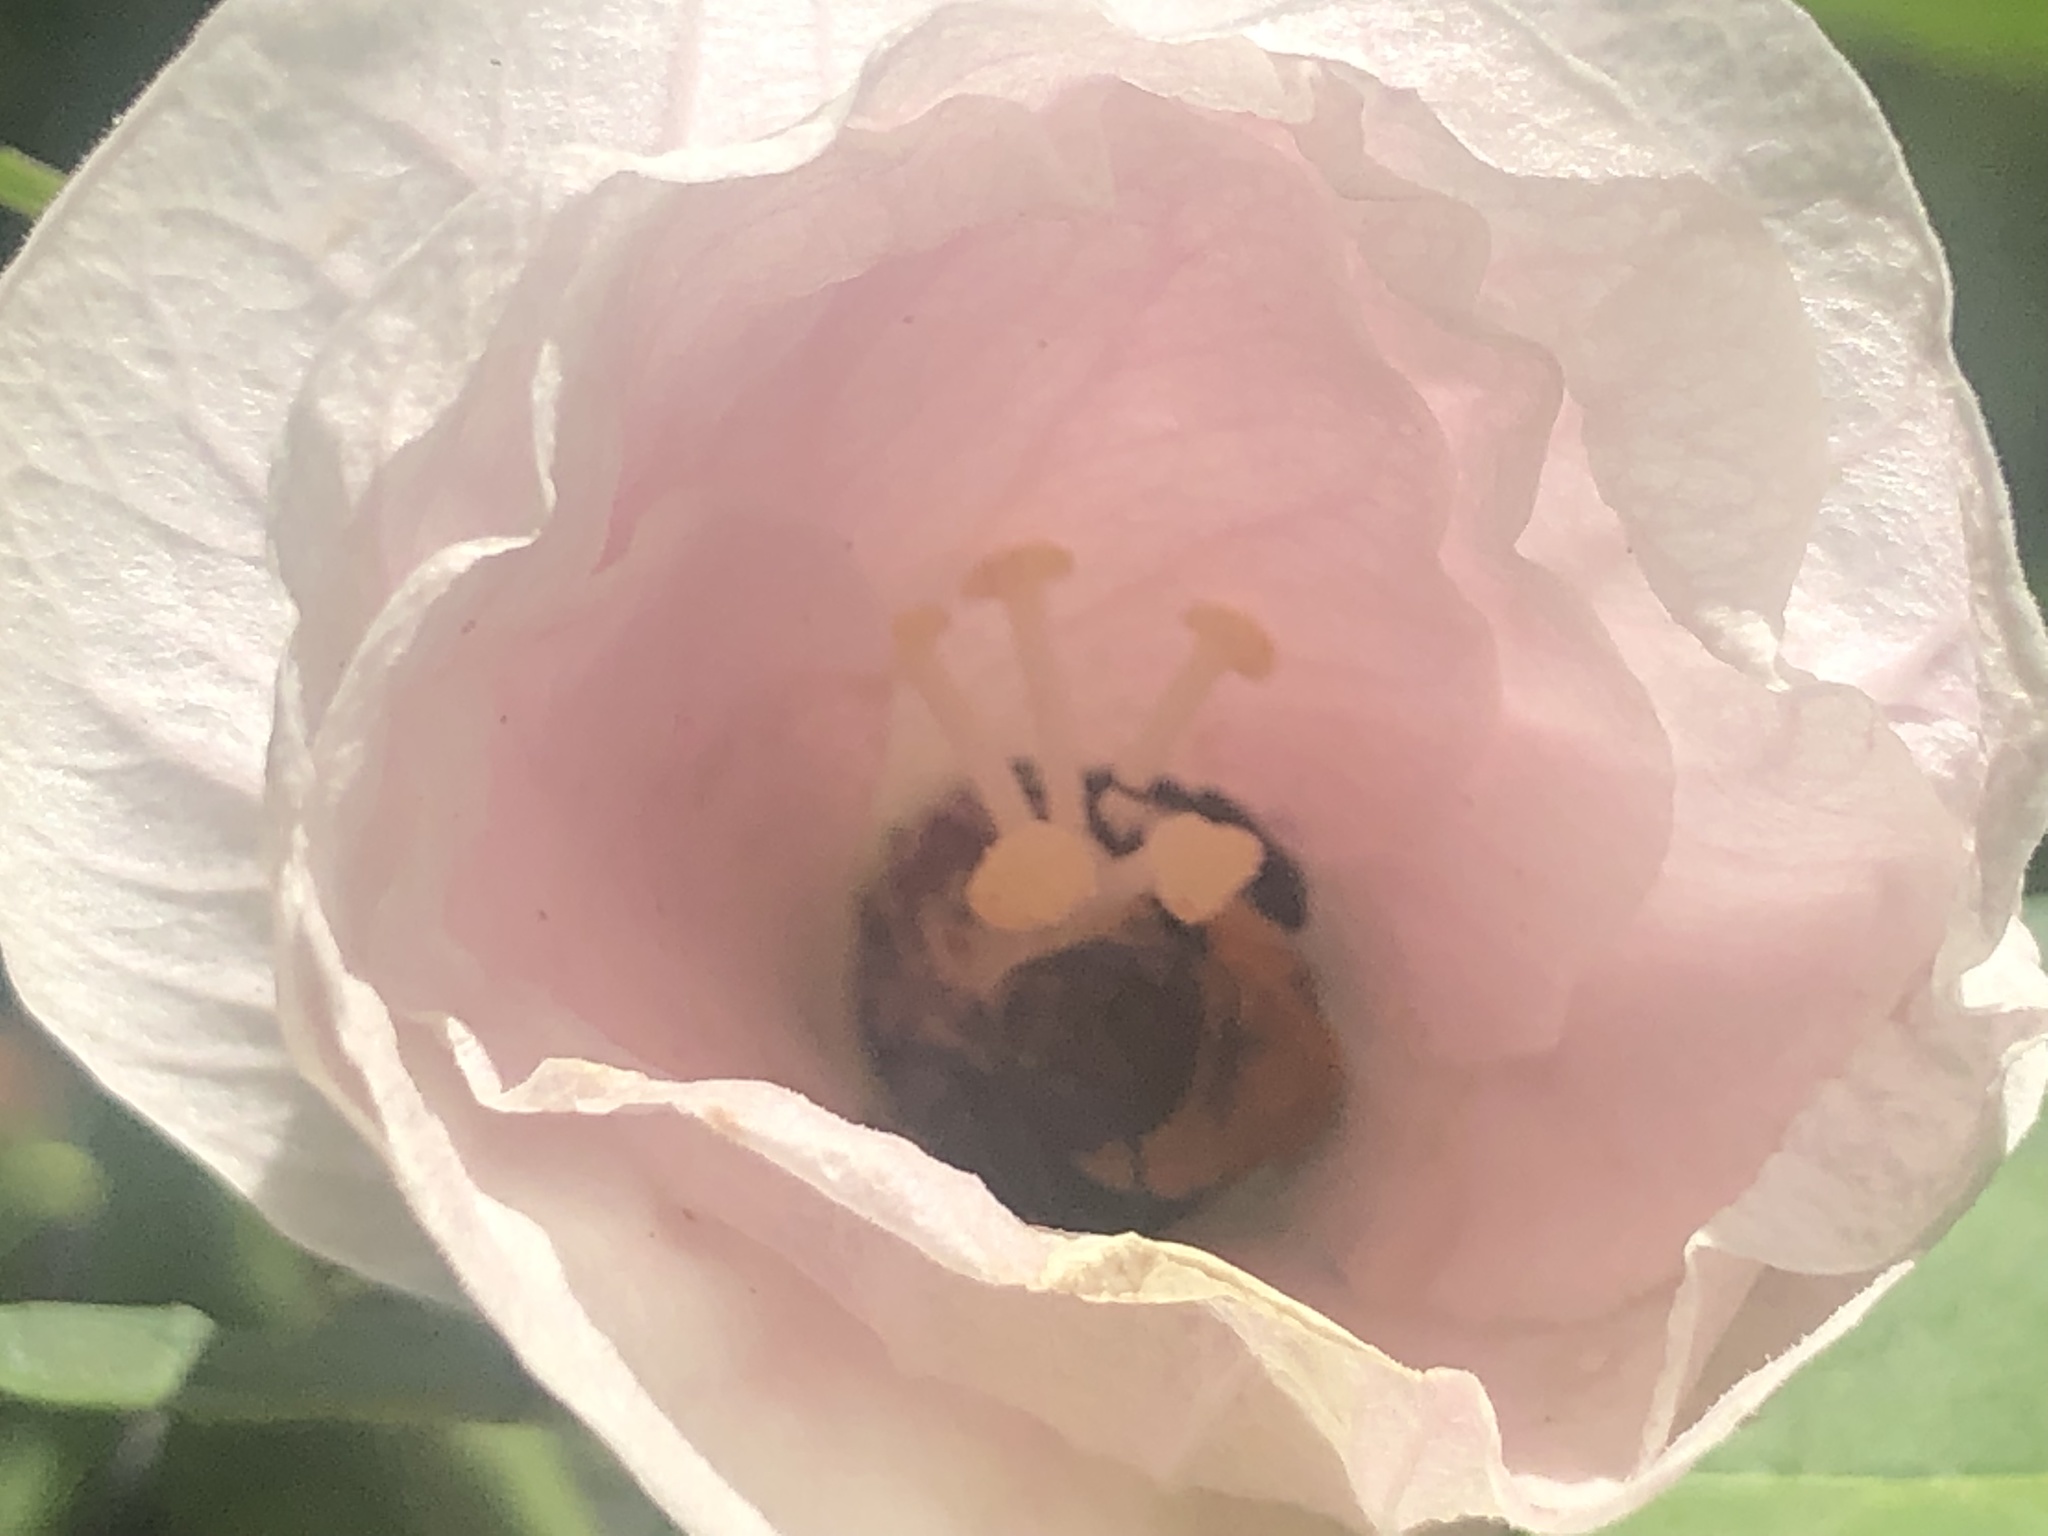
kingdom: Animalia
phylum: Arthropoda
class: Insecta
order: Hymenoptera
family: Apidae
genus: Ptilothrix
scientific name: Ptilothrix bombiformis
